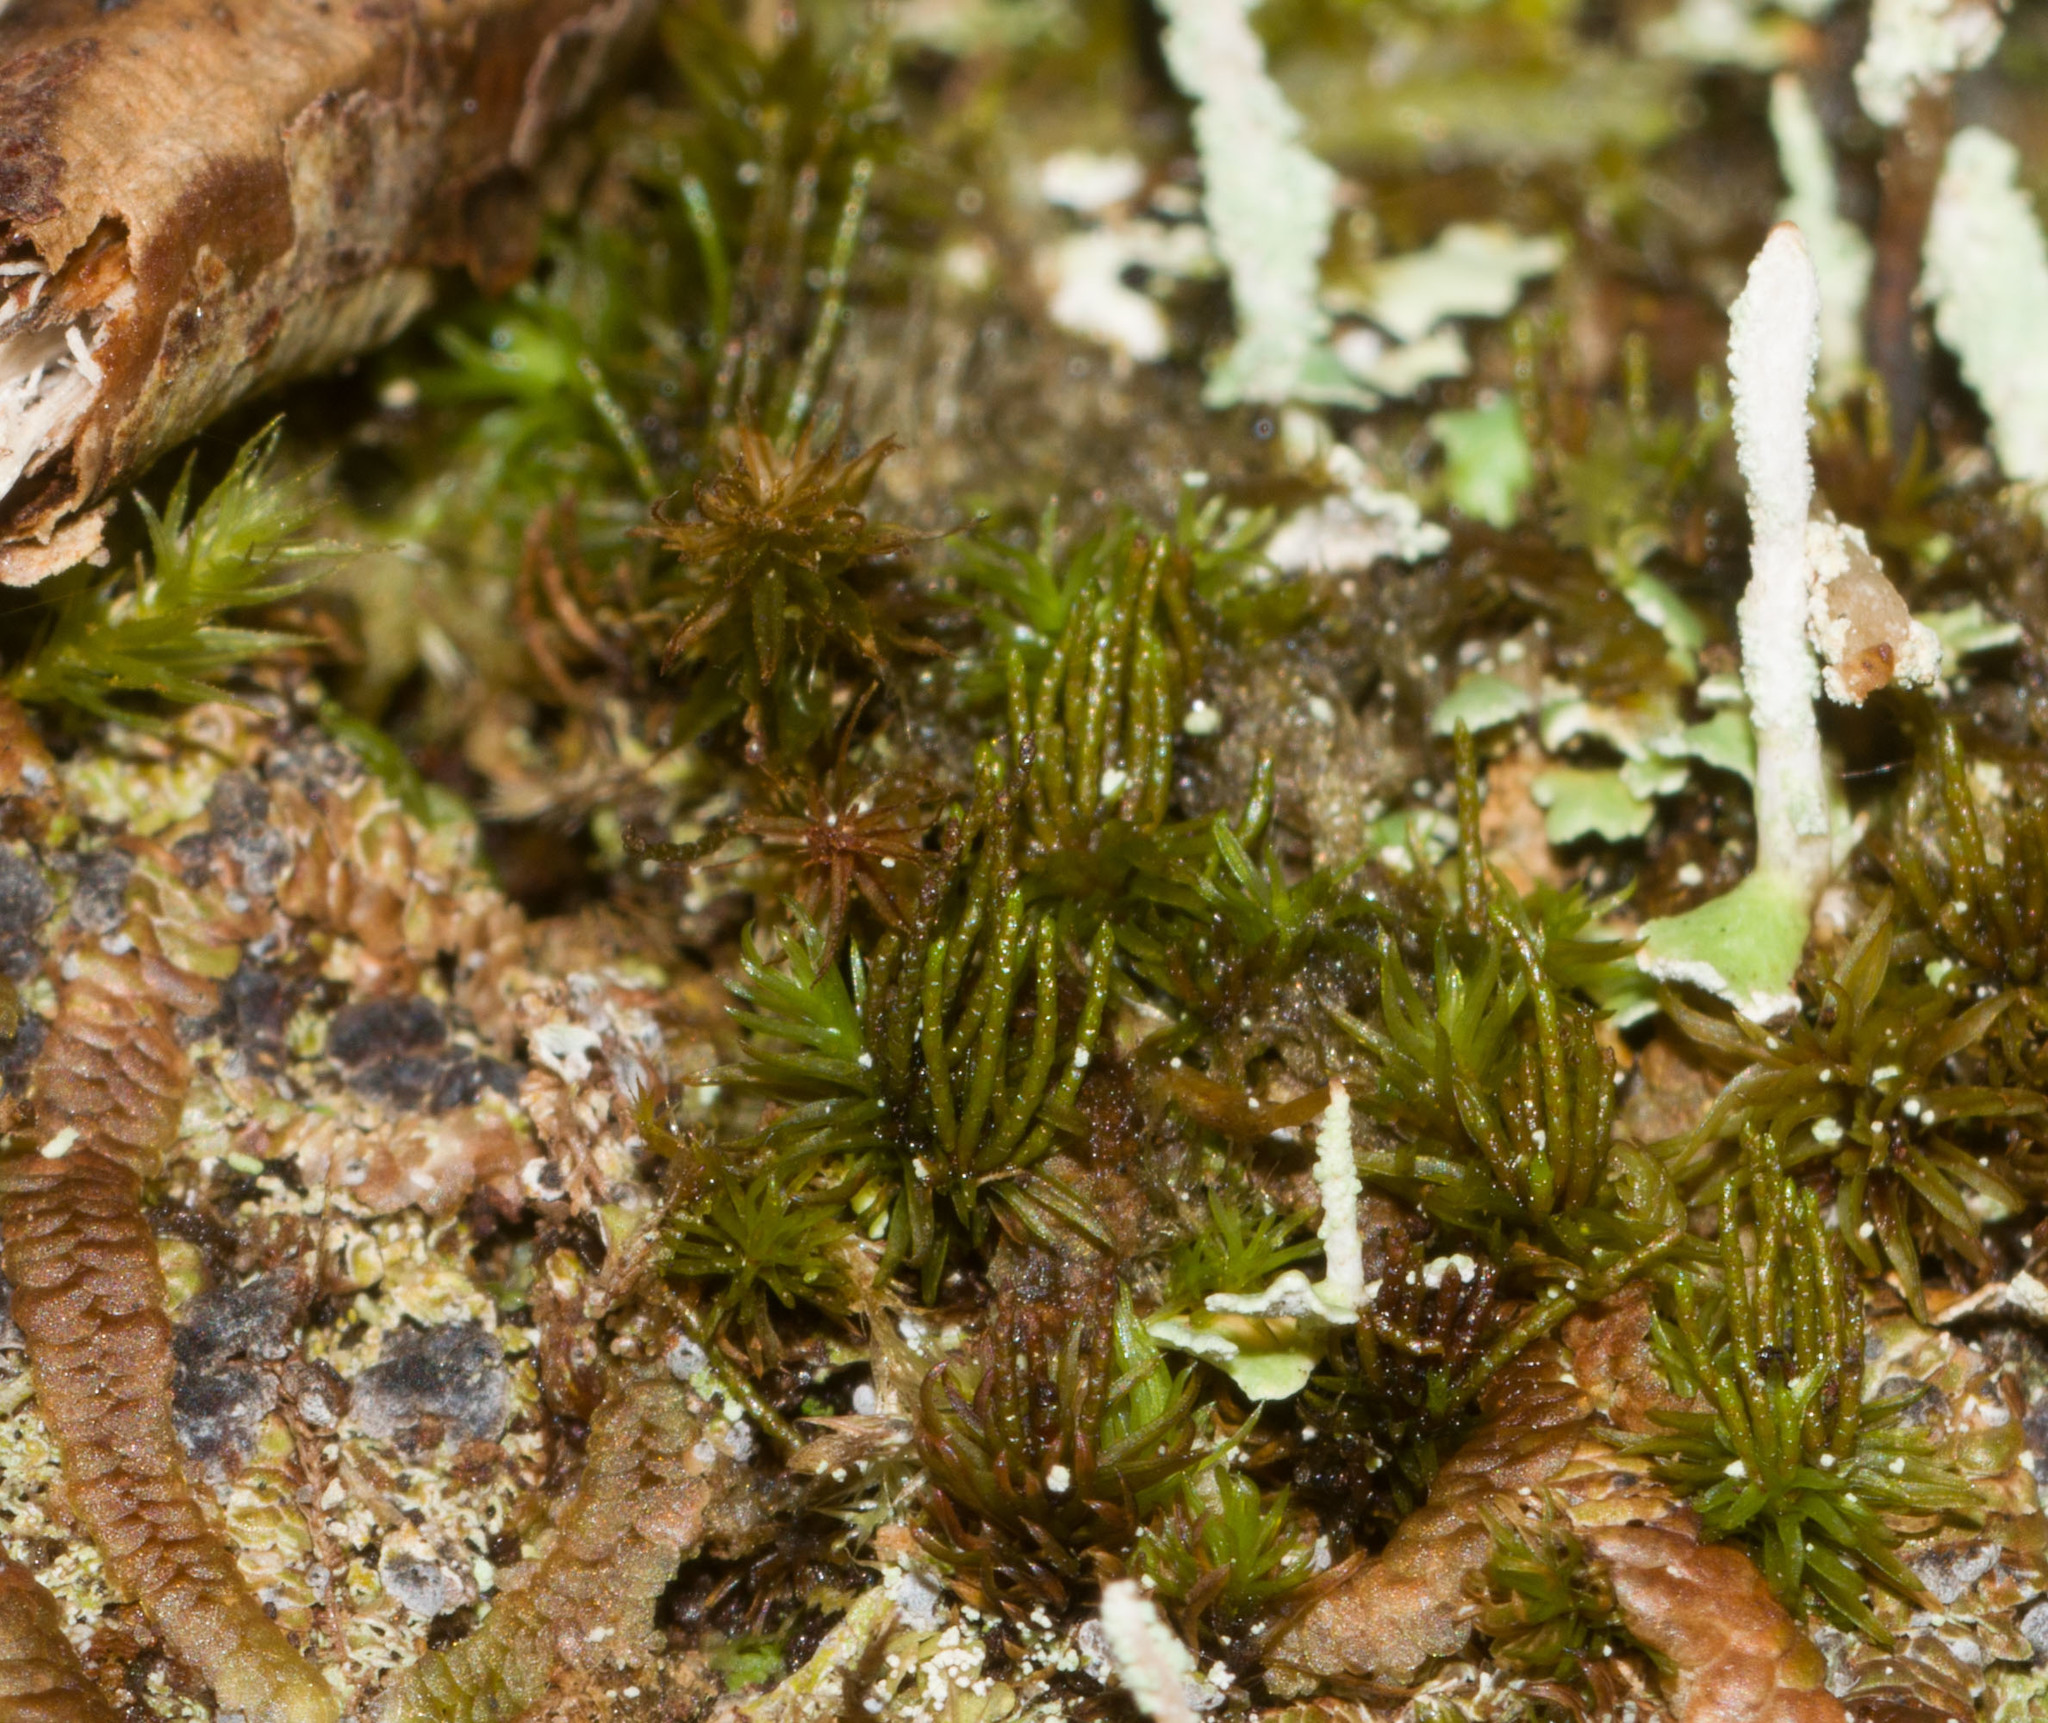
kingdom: Plantae
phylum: Bryophyta
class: Bryopsida
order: Dicranales
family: Dicranaceae
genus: Holomitrium
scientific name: Holomitrium seticalycinum
